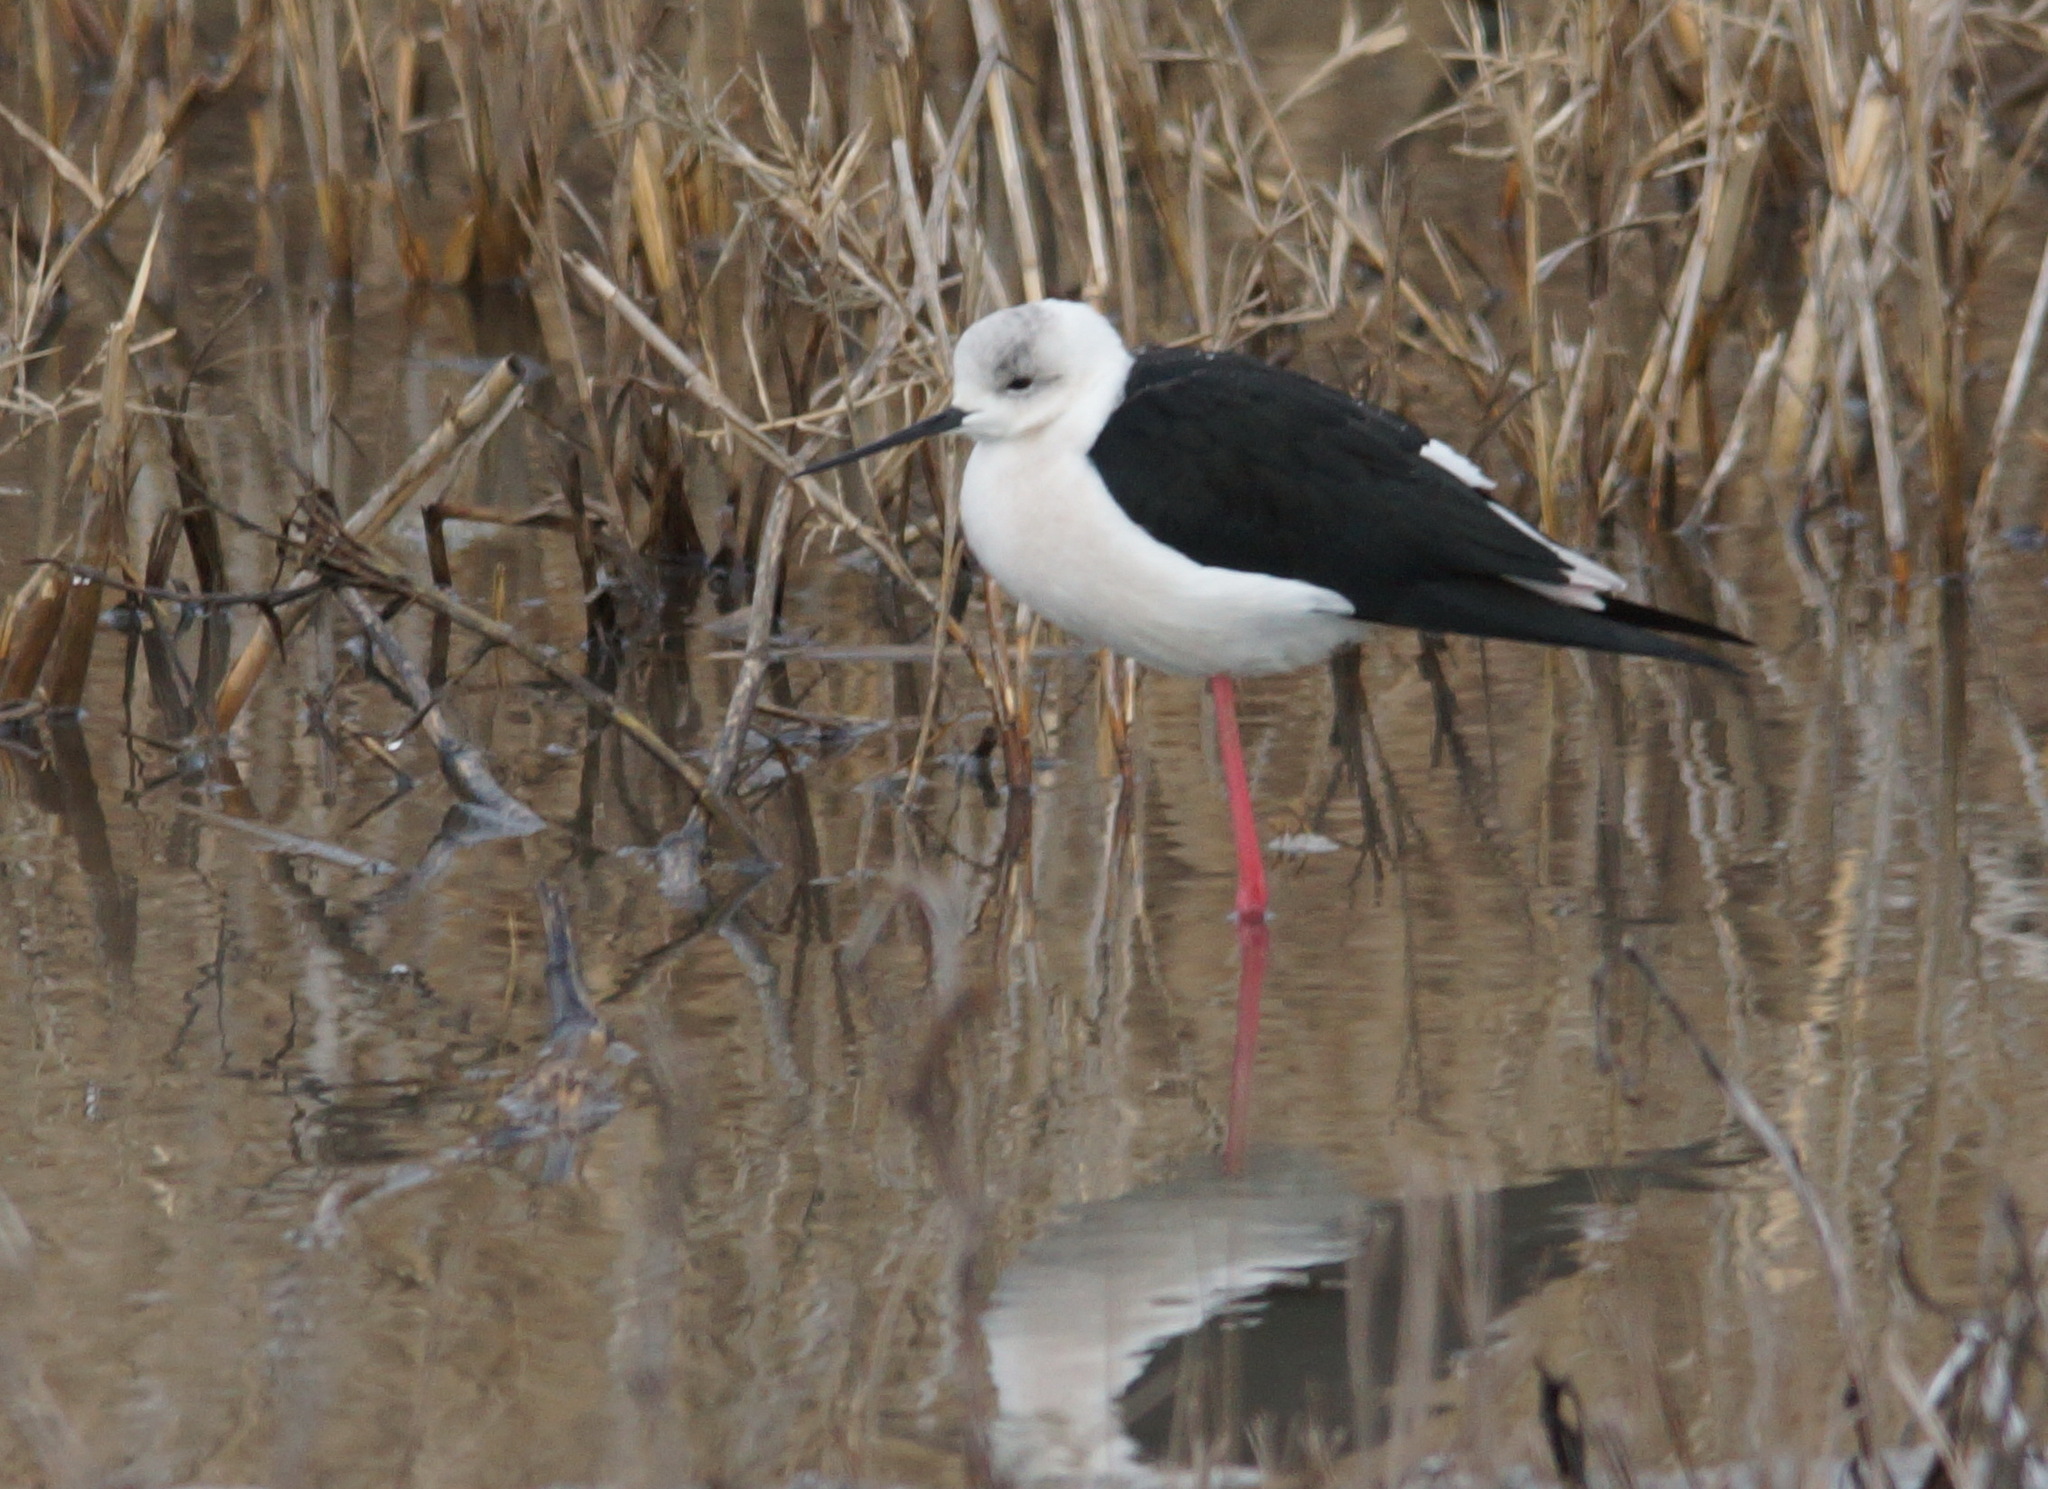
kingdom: Animalia
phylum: Chordata
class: Aves
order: Charadriiformes
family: Recurvirostridae
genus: Himantopus
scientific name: Himantopus himantopus
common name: Black-winged stilt
